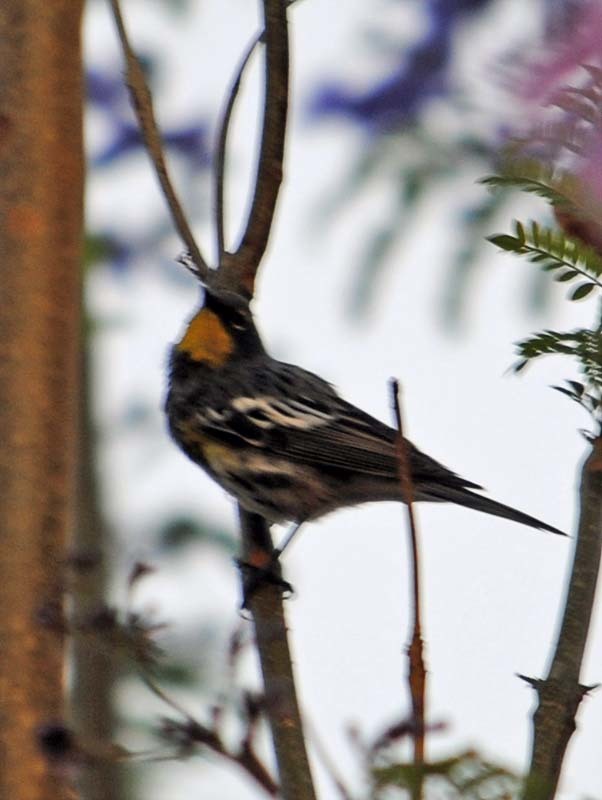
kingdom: Animalia
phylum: Chordata
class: Aves
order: Passeriformes
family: Parulidae
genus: Setophaga
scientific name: Setophaga auduboni
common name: Audubon's warbler
